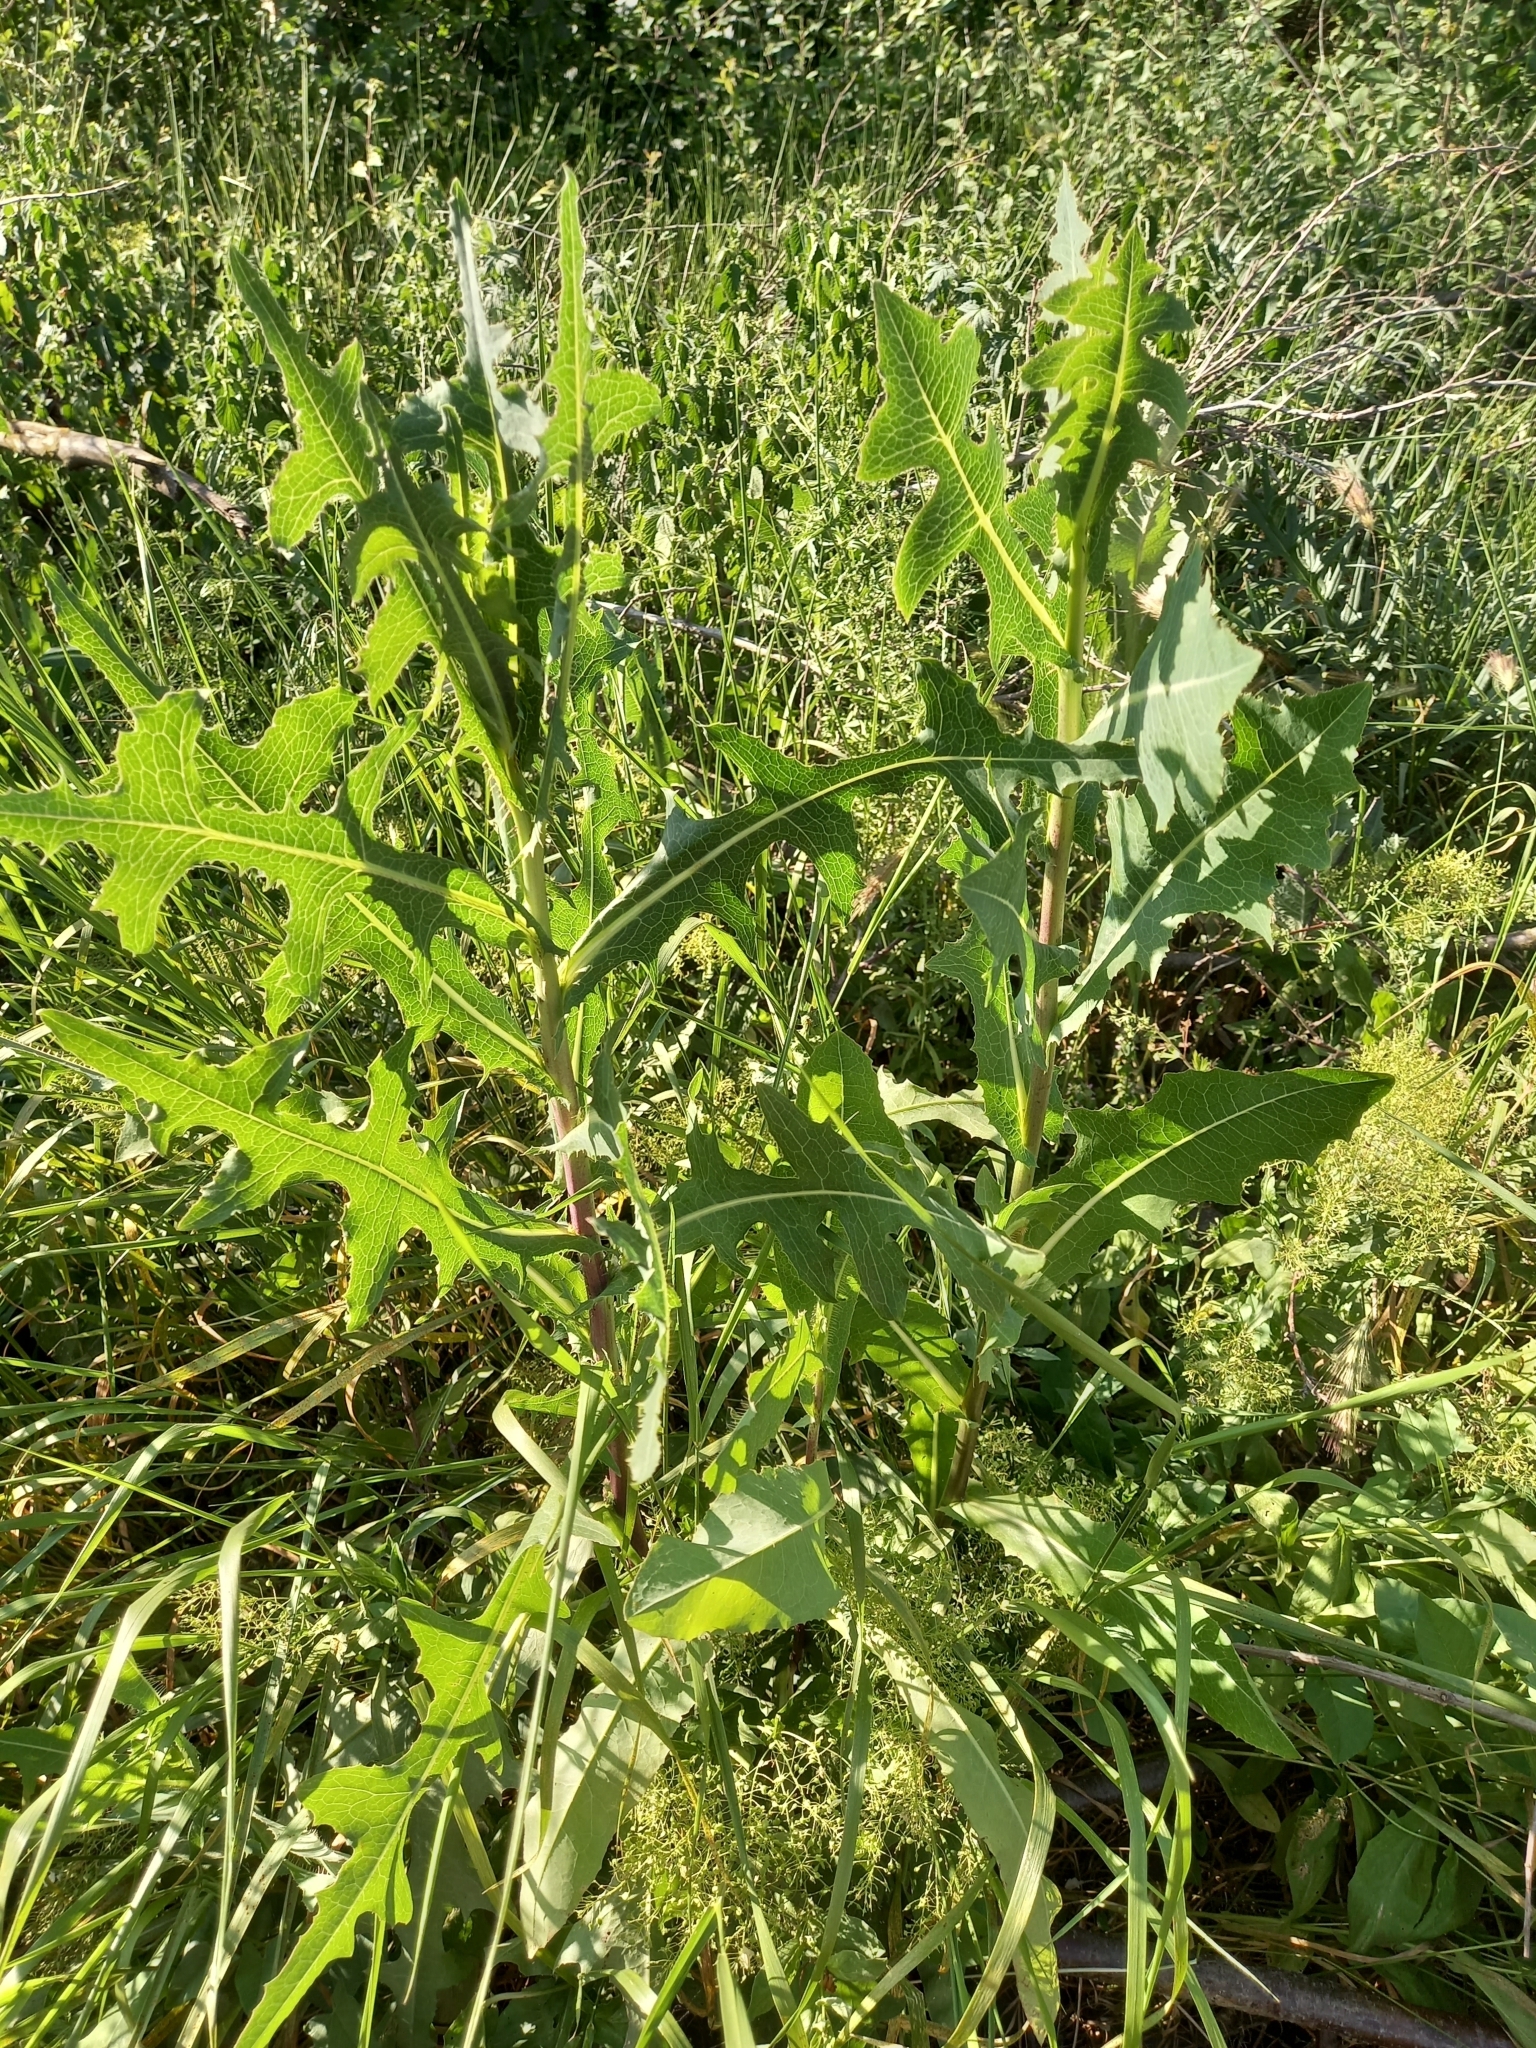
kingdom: Plantae
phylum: Tracheophyta
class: Magnoliopsida
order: Asterales
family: Asteraceae
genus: Lactuca
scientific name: Lactuca serriola
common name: Prickly lettuce
